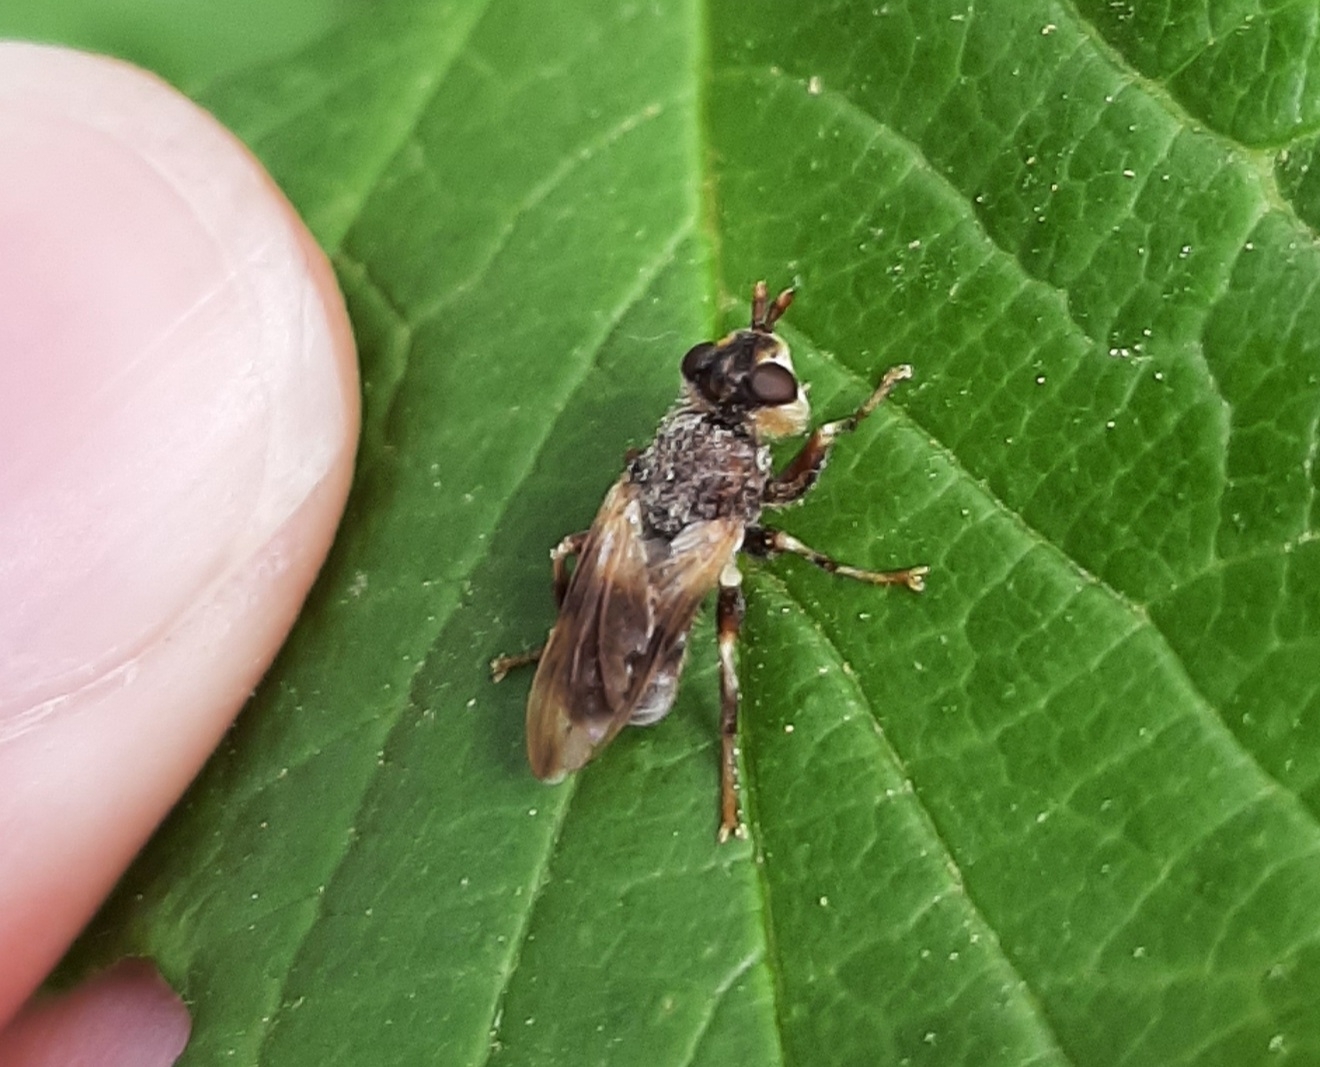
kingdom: Animalia
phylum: Arthropoda
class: Insecta
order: Diptera
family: Conopidae
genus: Myopa
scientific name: Myopa vesiculosa
